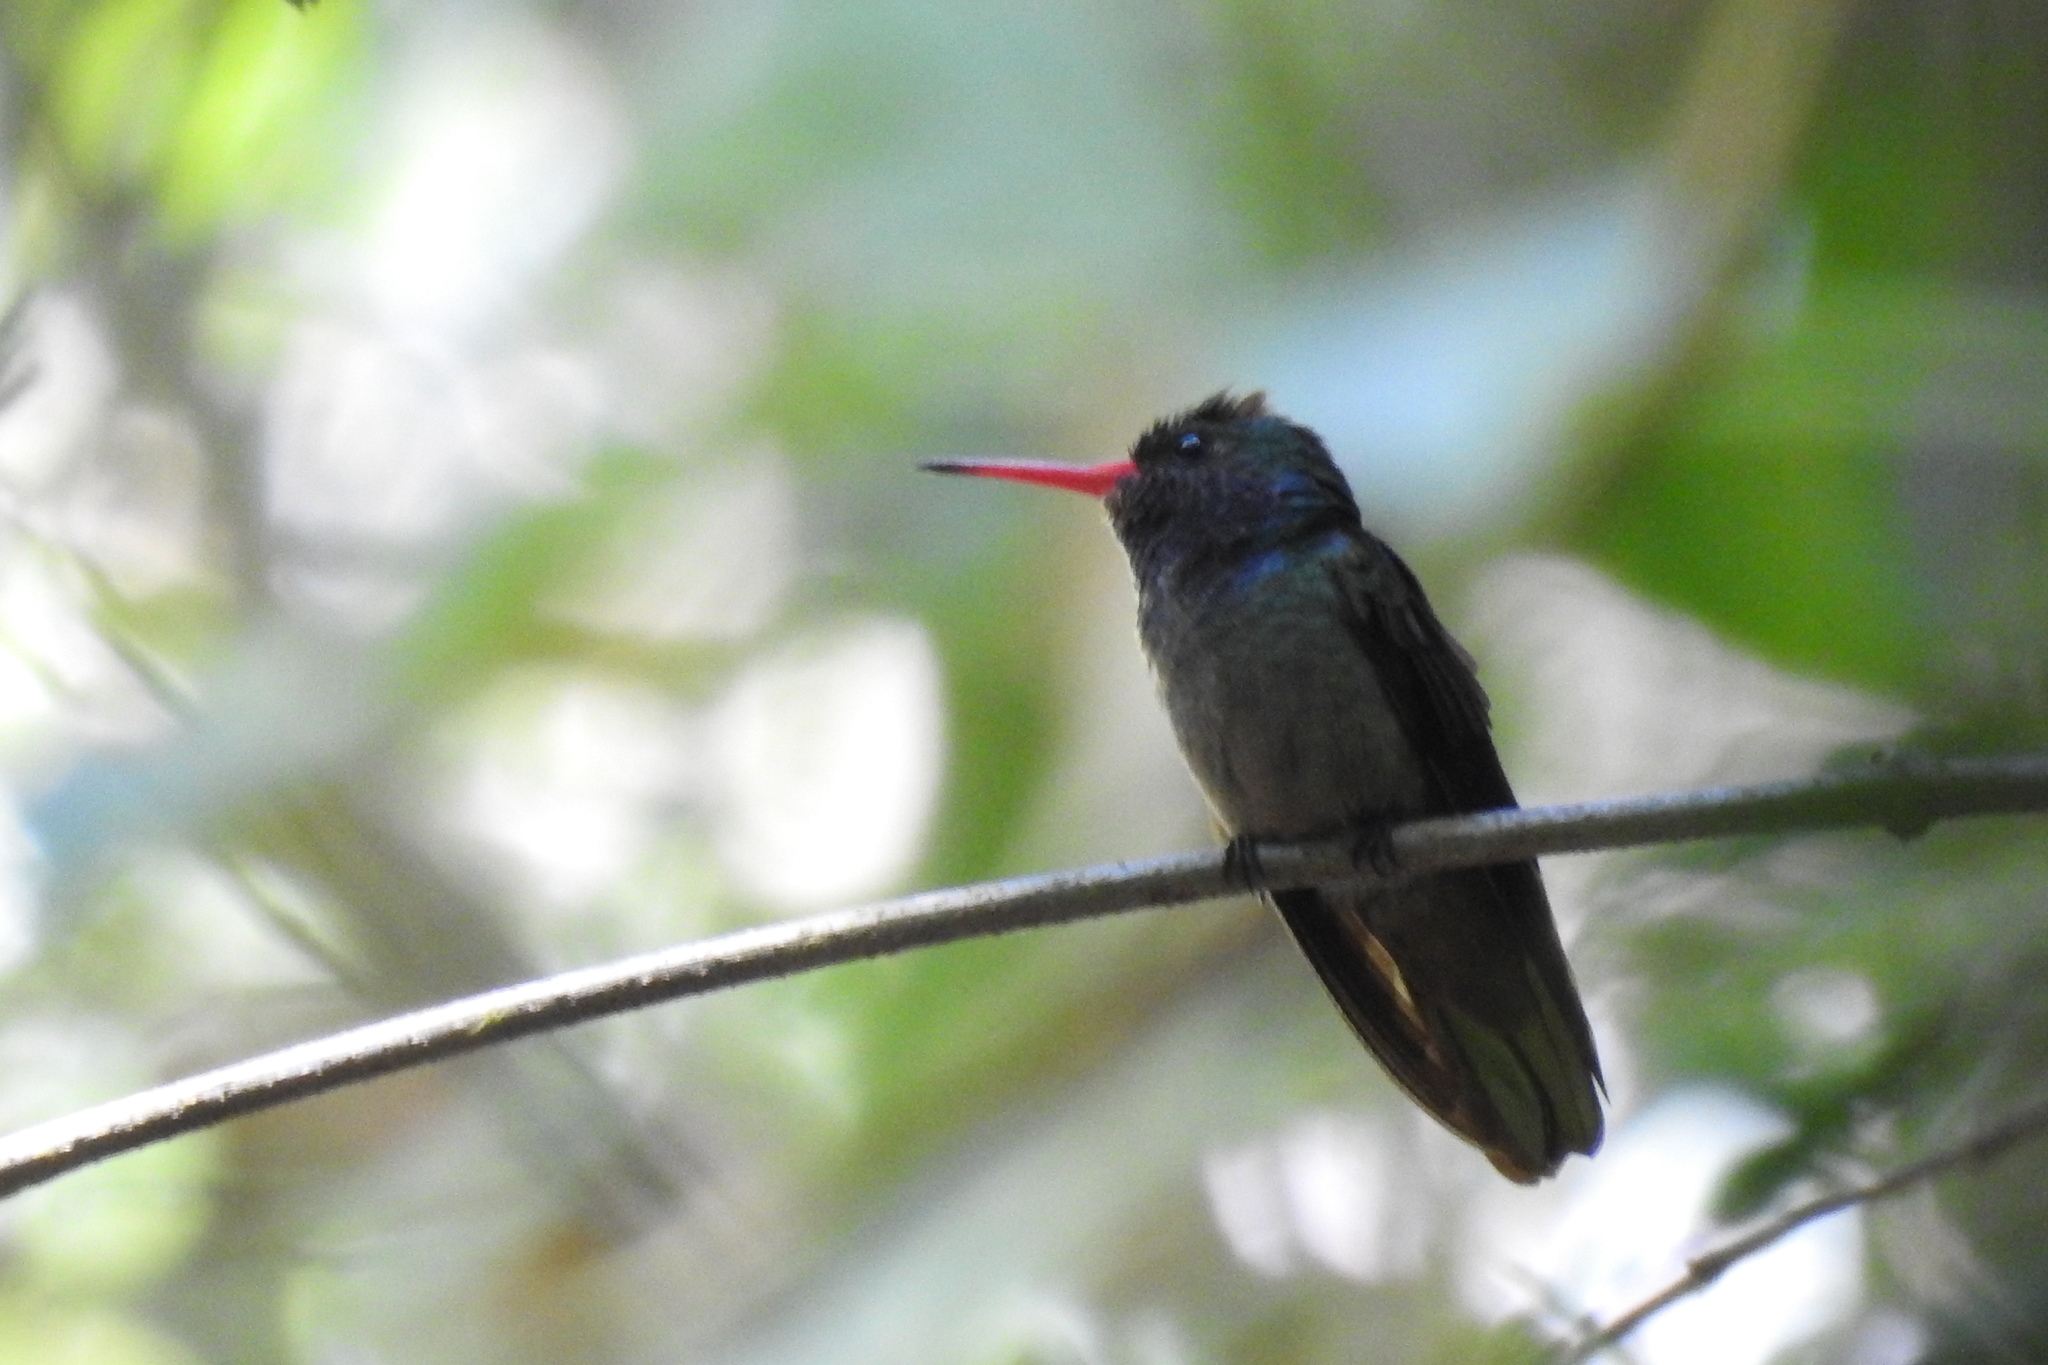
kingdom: Animalia
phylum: Chordata
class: Aves
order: Apodiformes
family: Trochilidae
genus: Chlorestes
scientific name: Chlorestes eliciae
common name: Blue-throated sapphire
